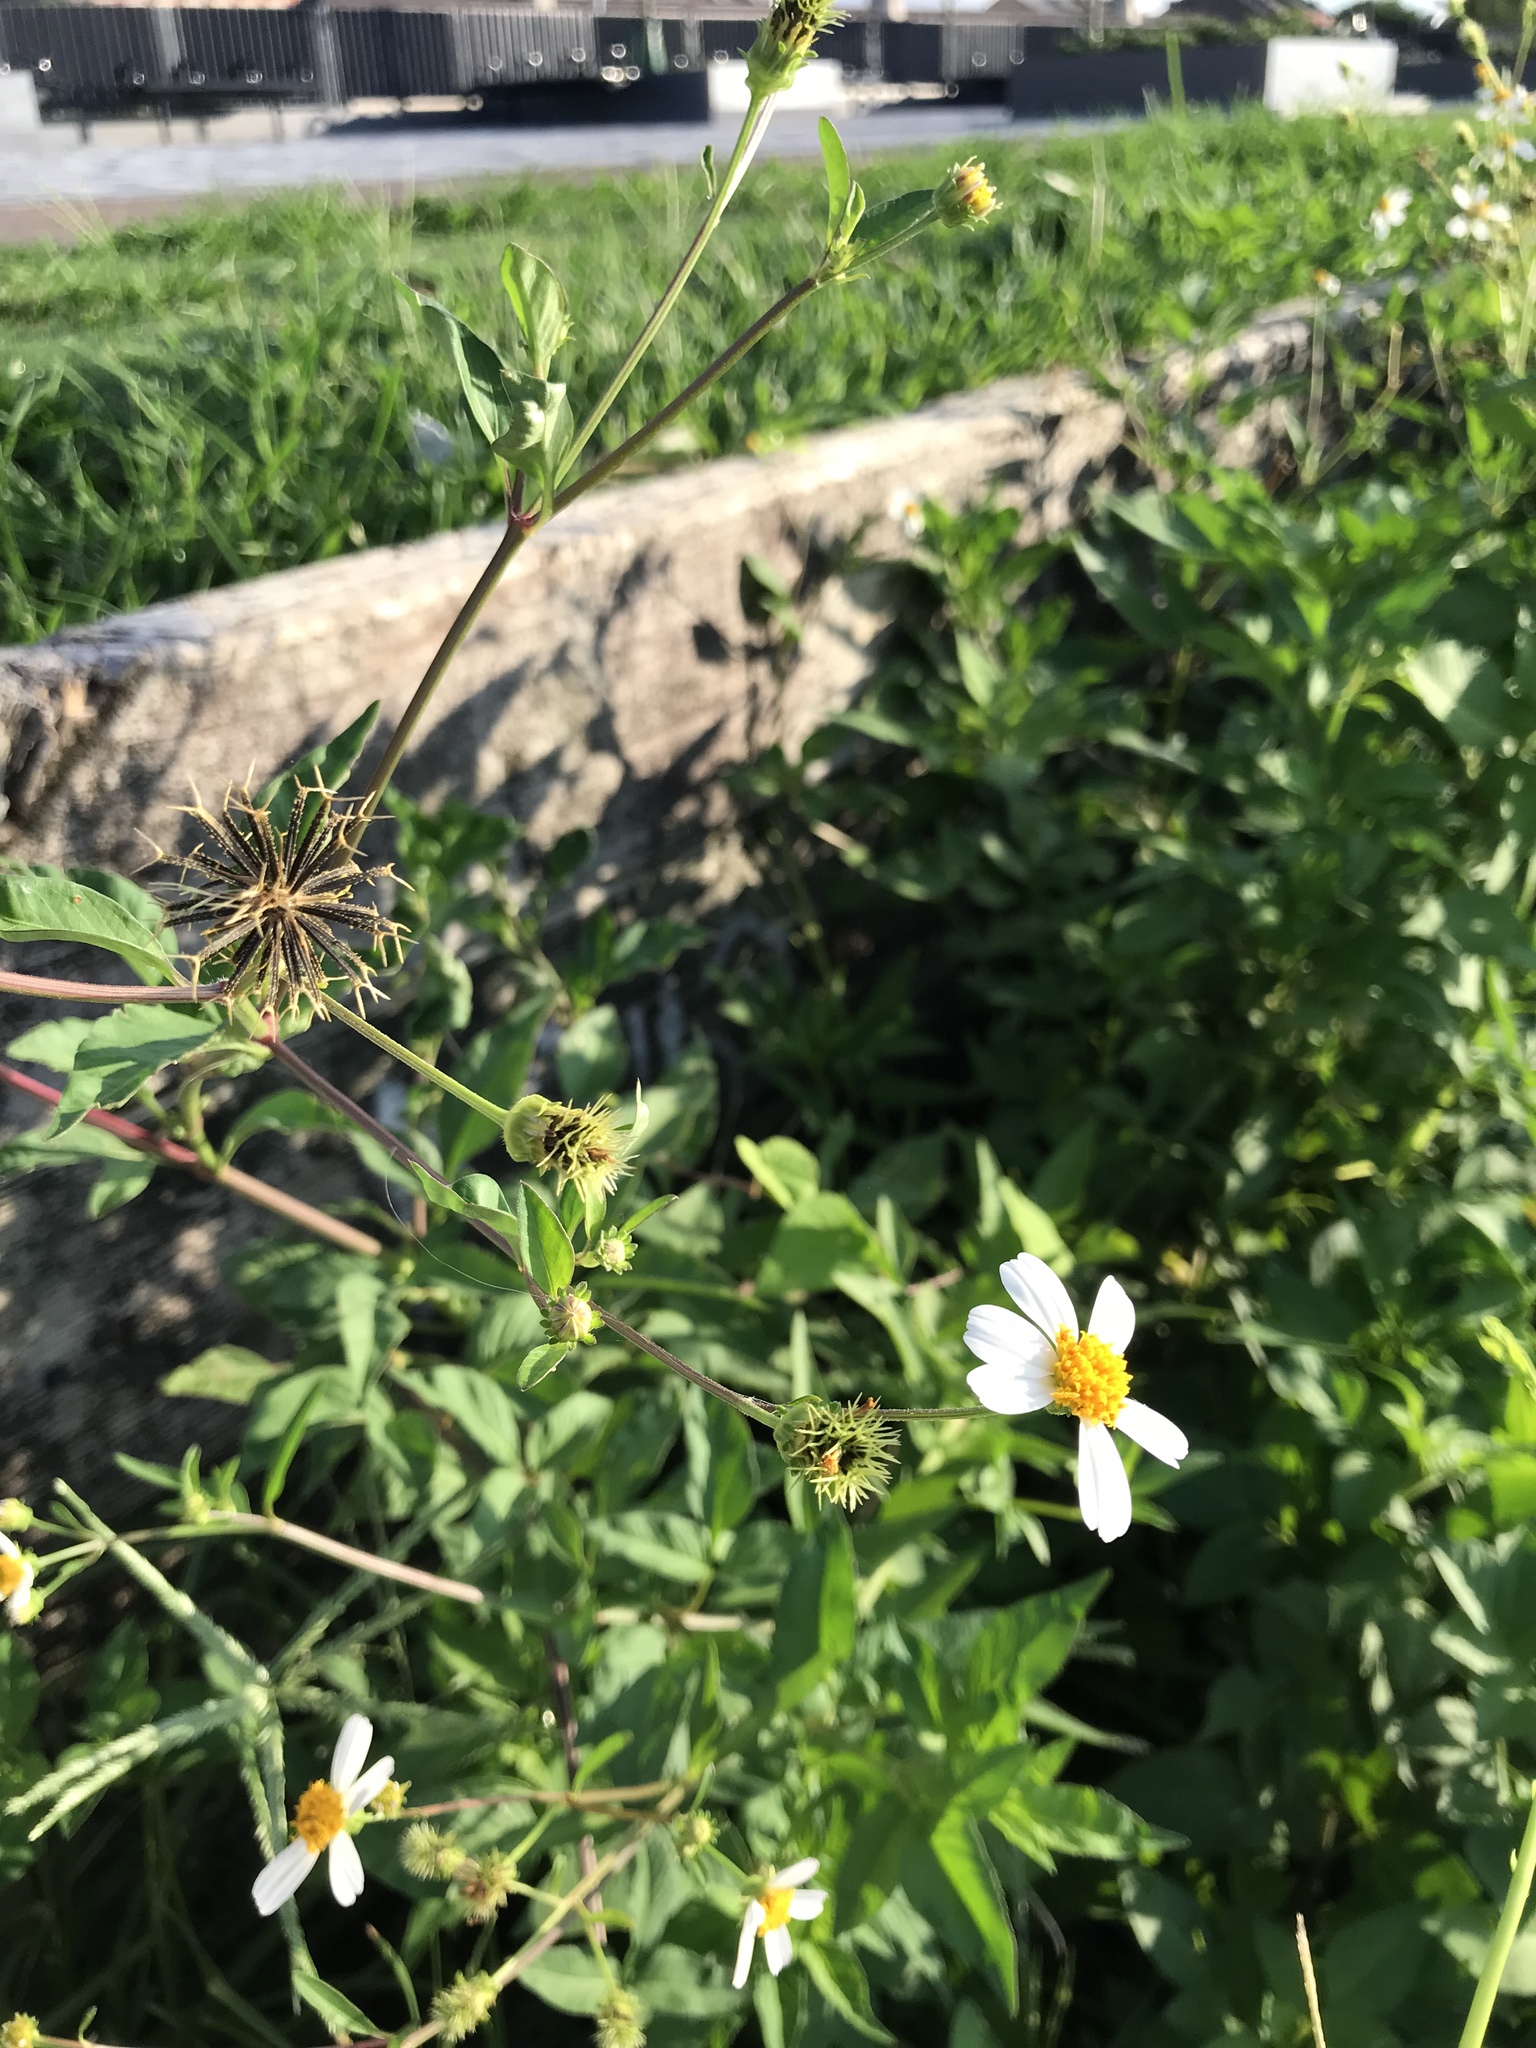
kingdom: Plantae
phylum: Tracheophyta
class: Magnoliopsida
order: Asterales
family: Asteraceae
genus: Bidens
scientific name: Bidens alba
